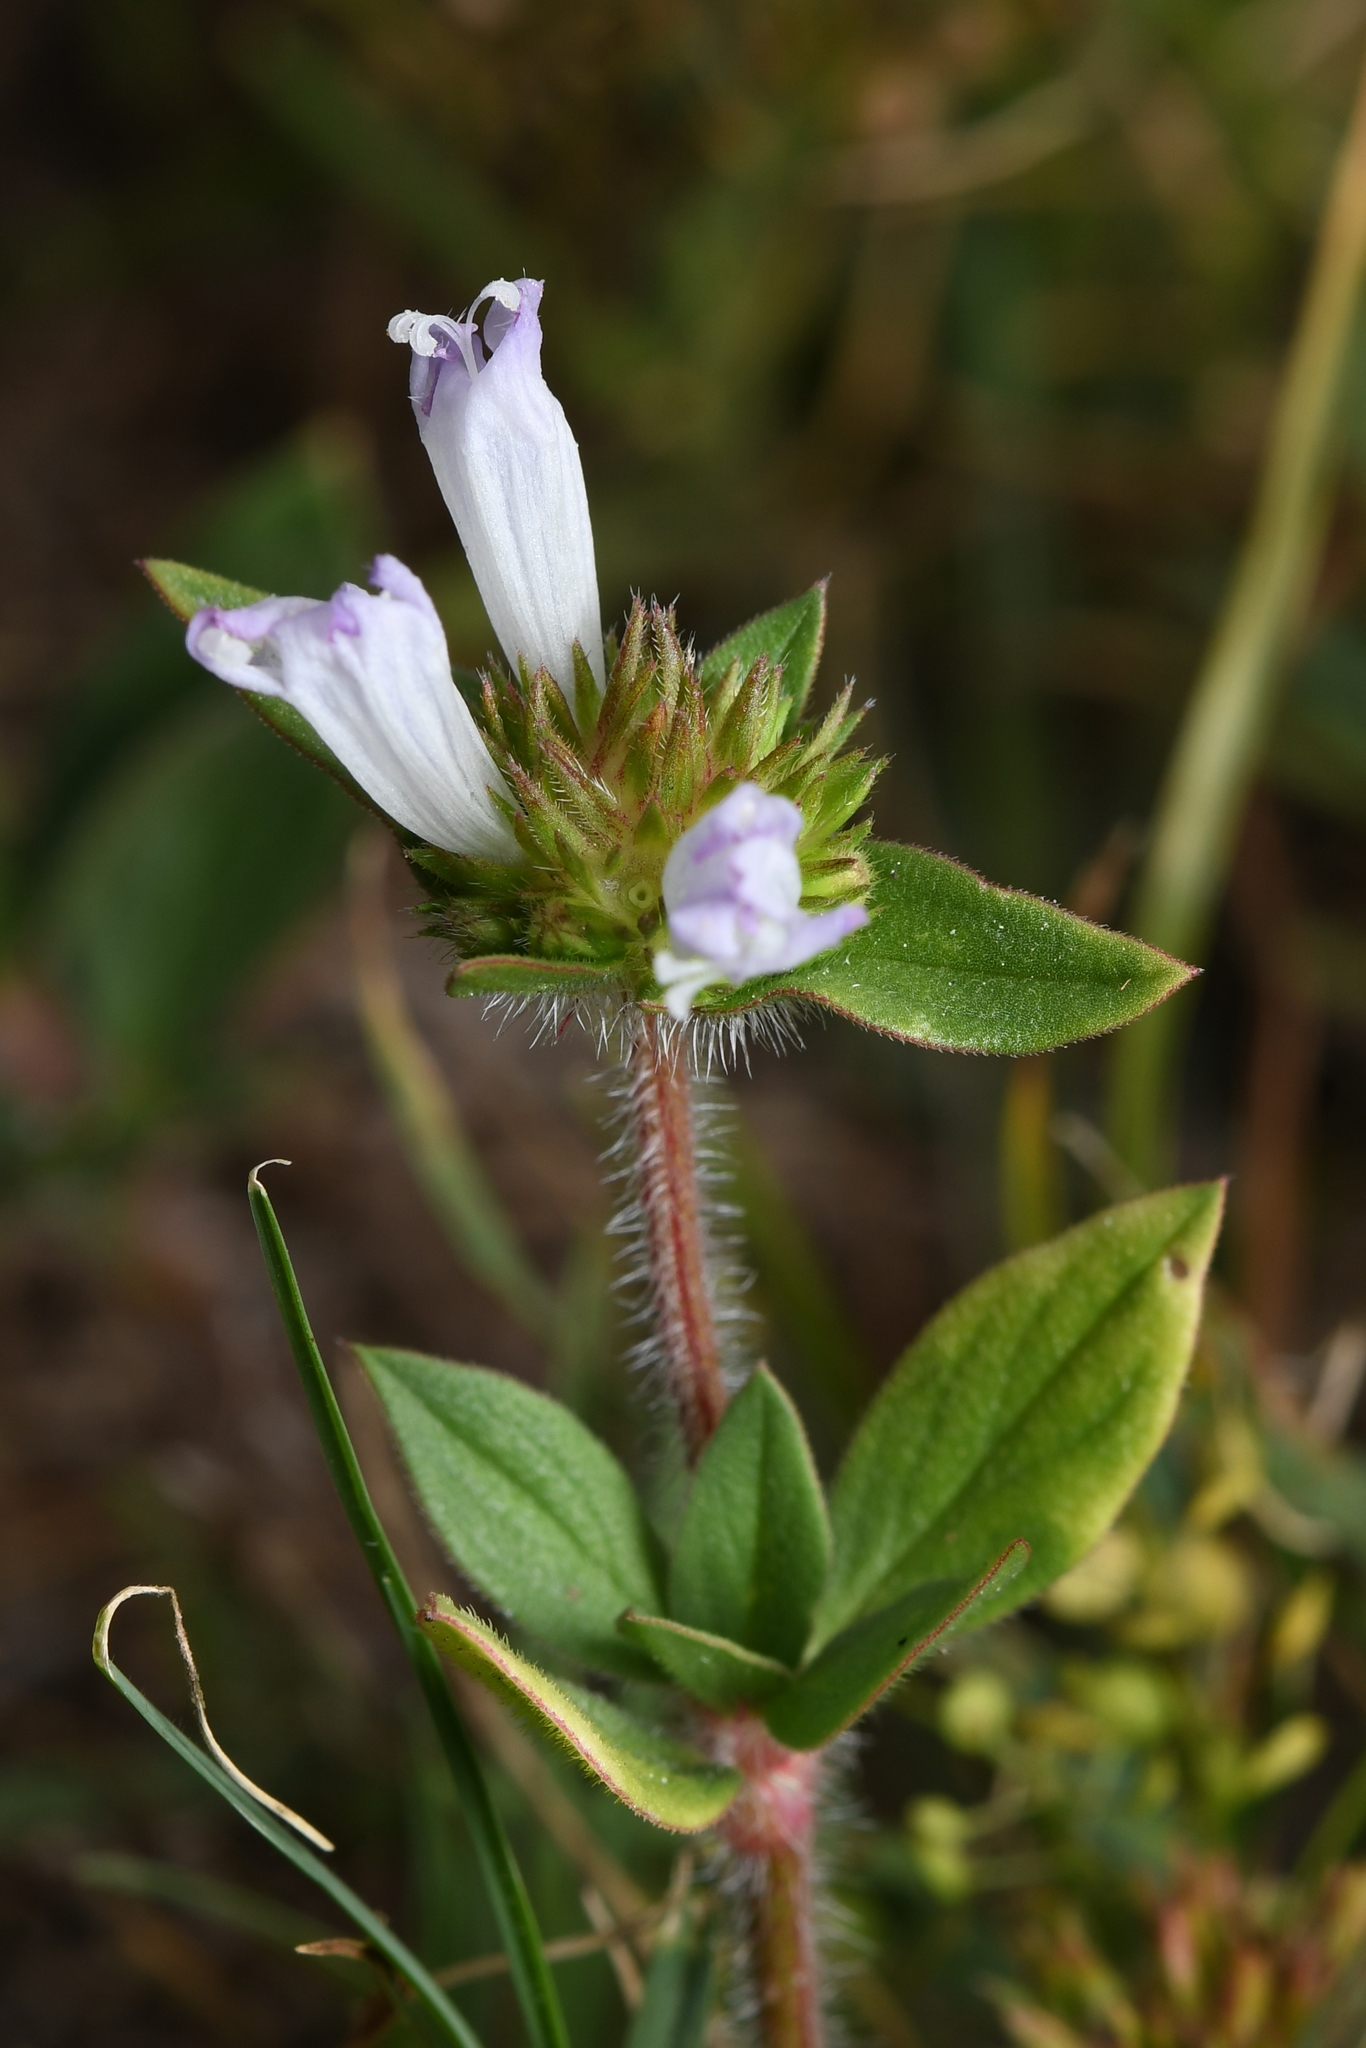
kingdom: Plantae
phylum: Tracheophyta
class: Magnoliopsida
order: Gentianales
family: Rubiaceae
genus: Richardia
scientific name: Richardia grandiflora
